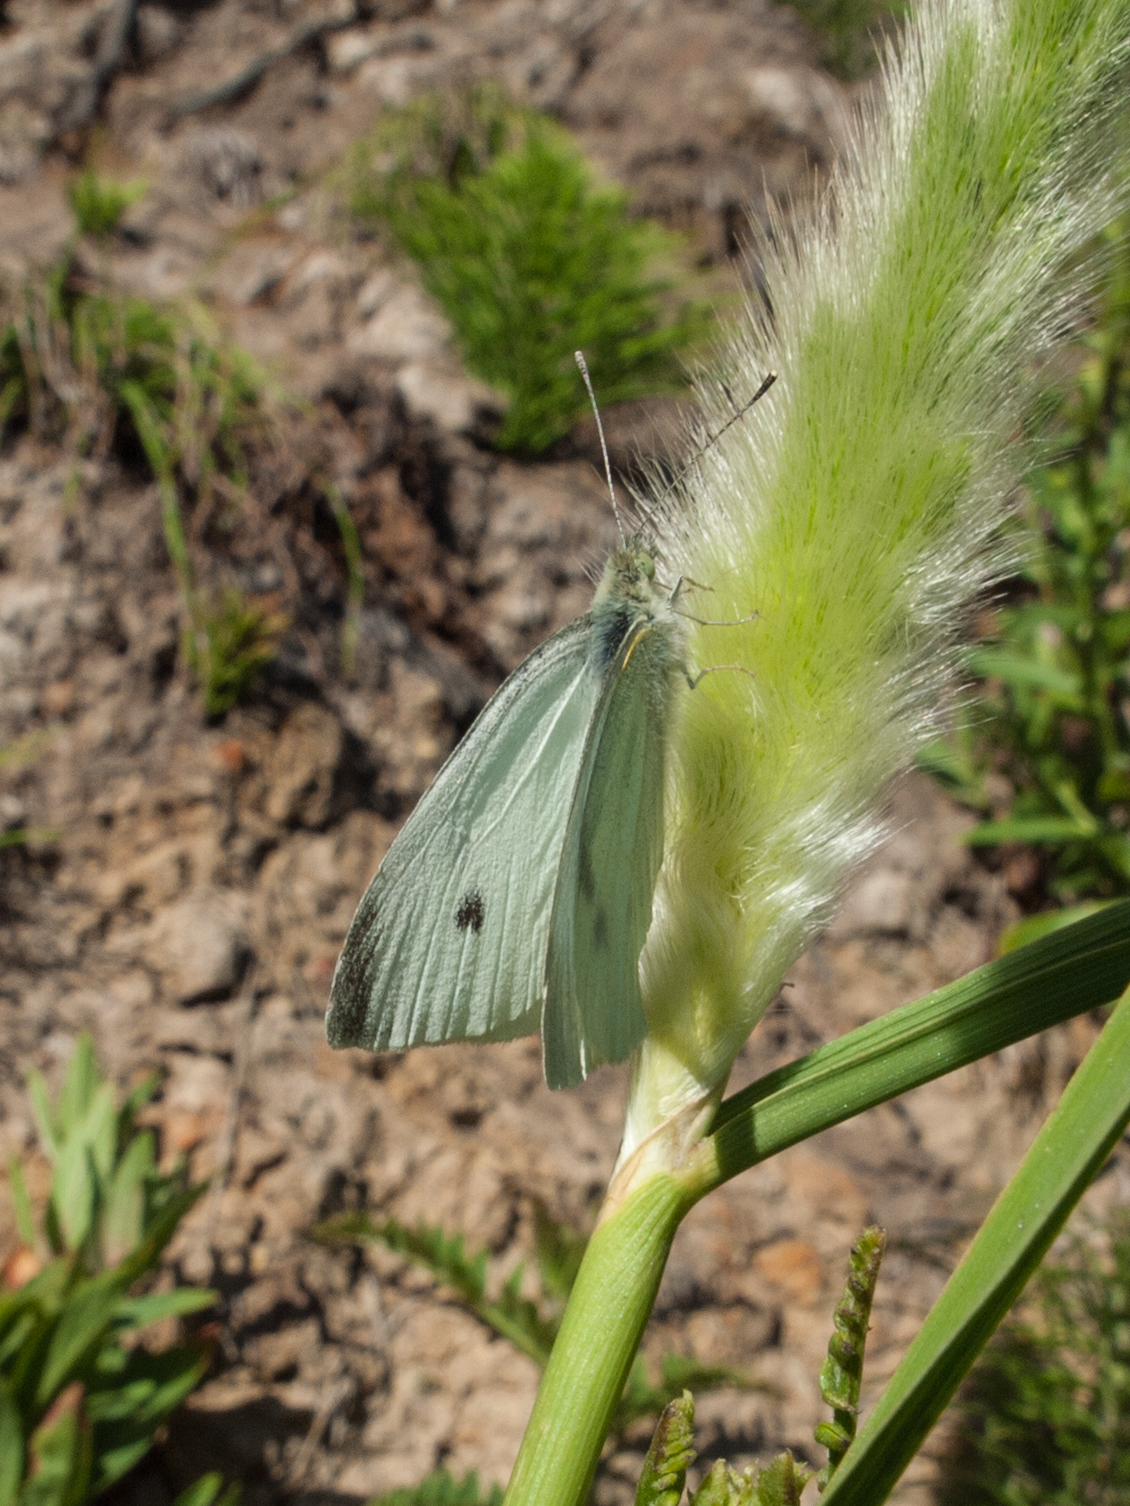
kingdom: Animalia
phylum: Arthropoda
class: Insecta
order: Lepidoptera
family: Pieridae
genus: Pieris
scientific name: Pieris rapae
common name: Small white
